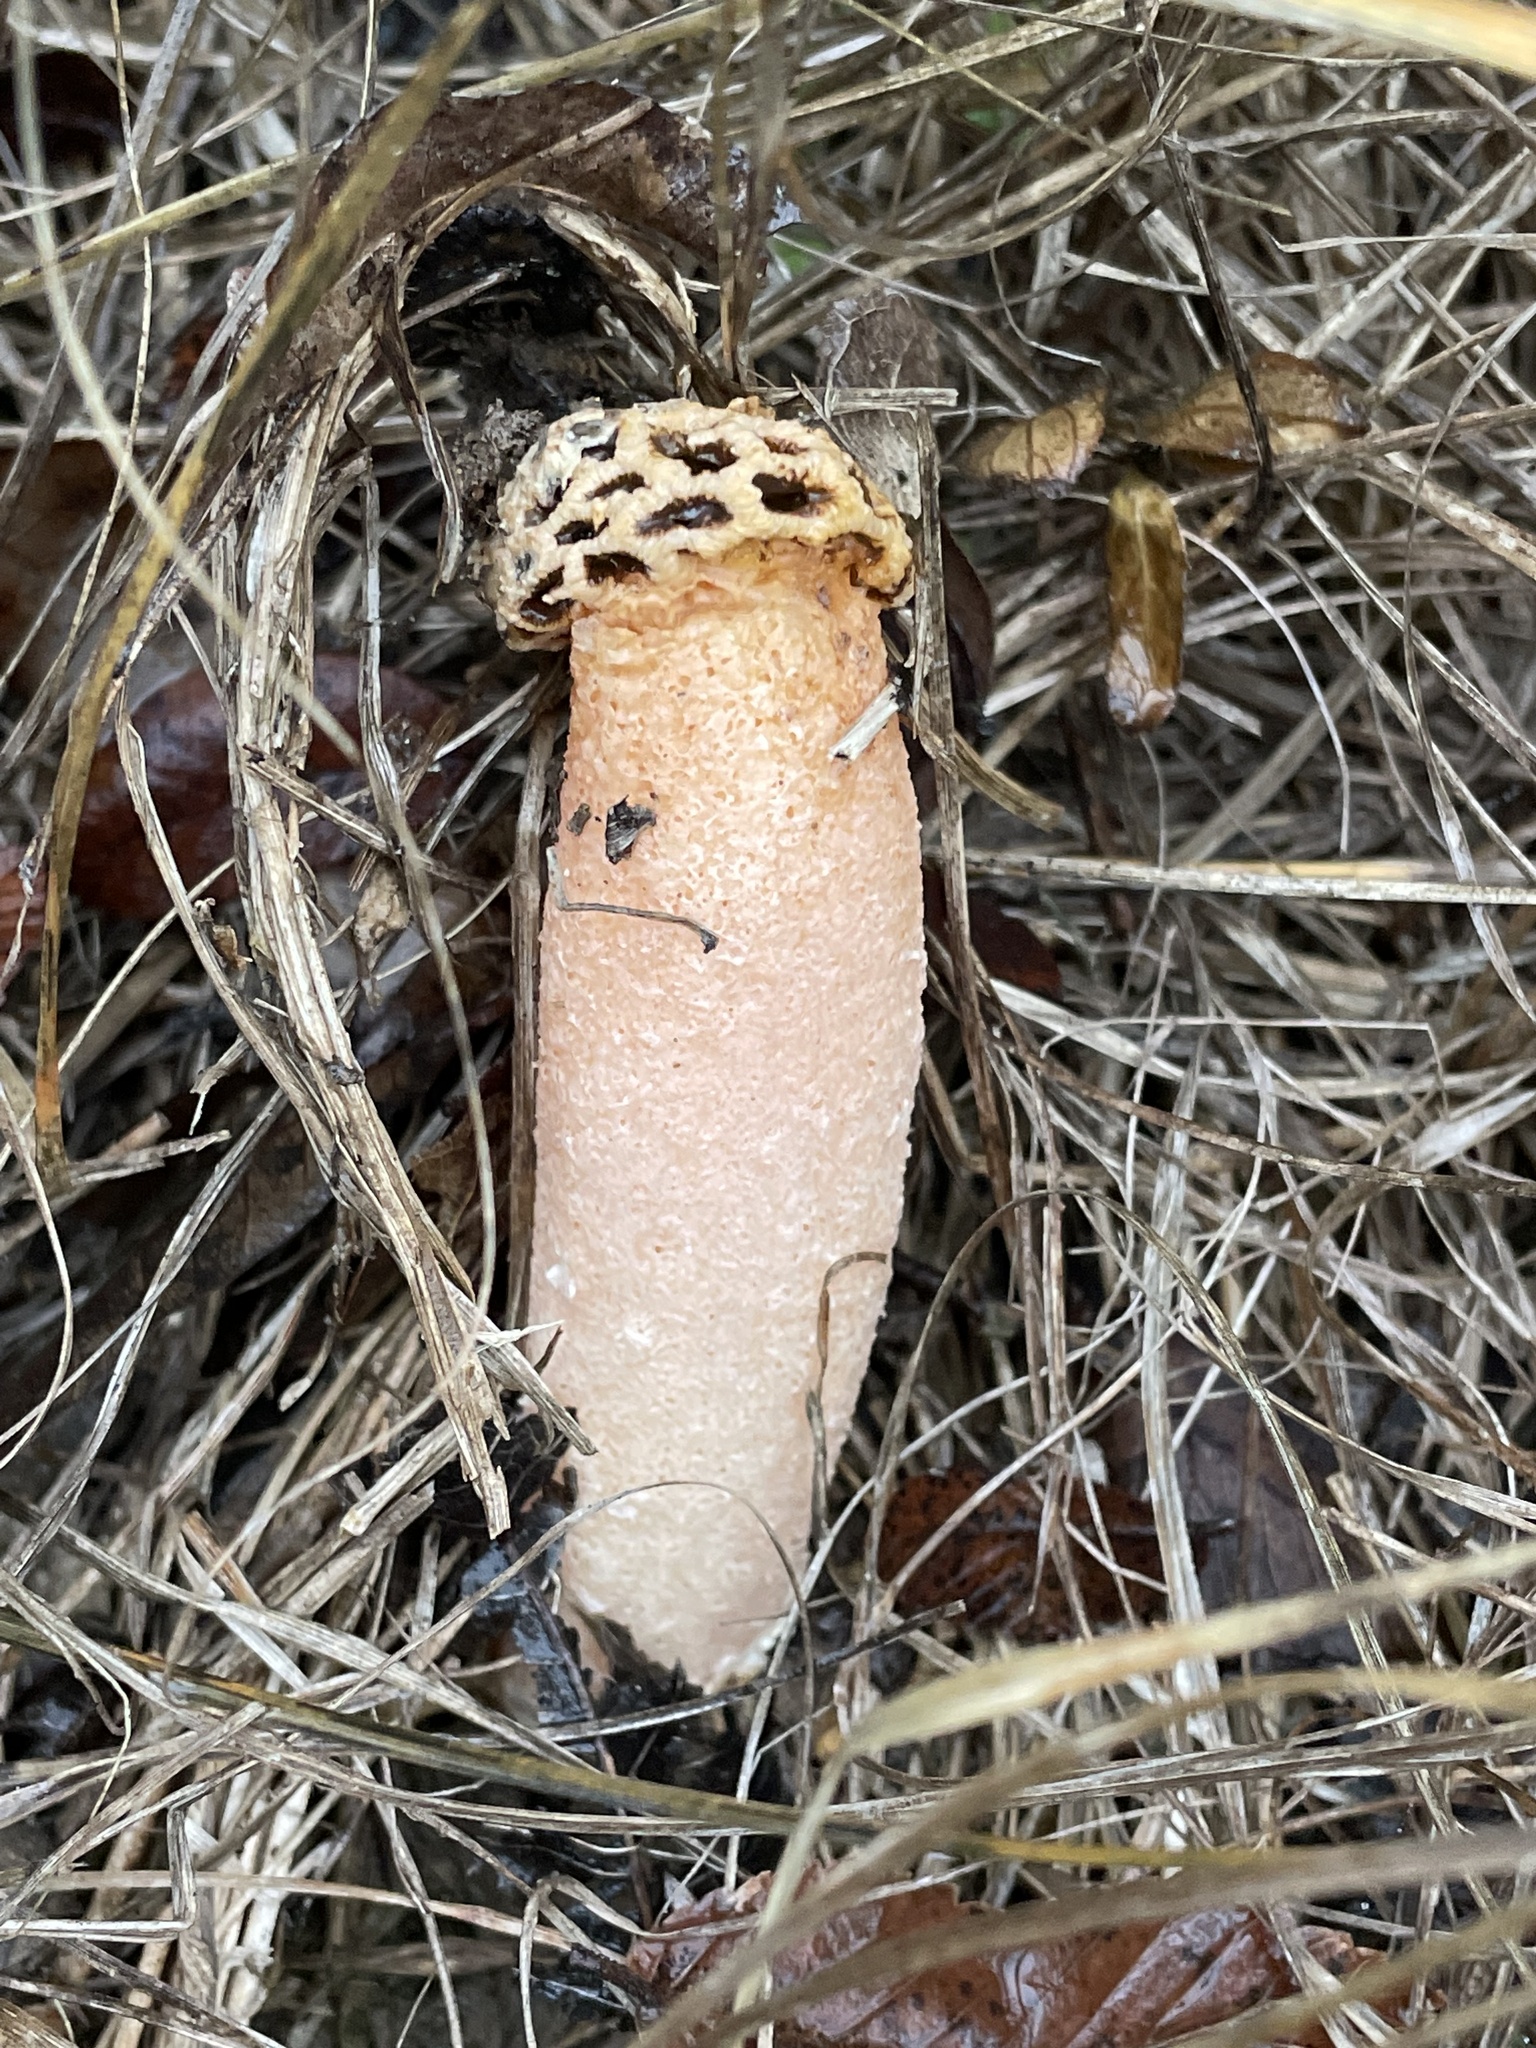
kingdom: Fungi
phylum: Basidiomycota
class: Agaricomycetes
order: Phallales
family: Phallaceae
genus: Lysurus
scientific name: Lysurus periphragmoides
